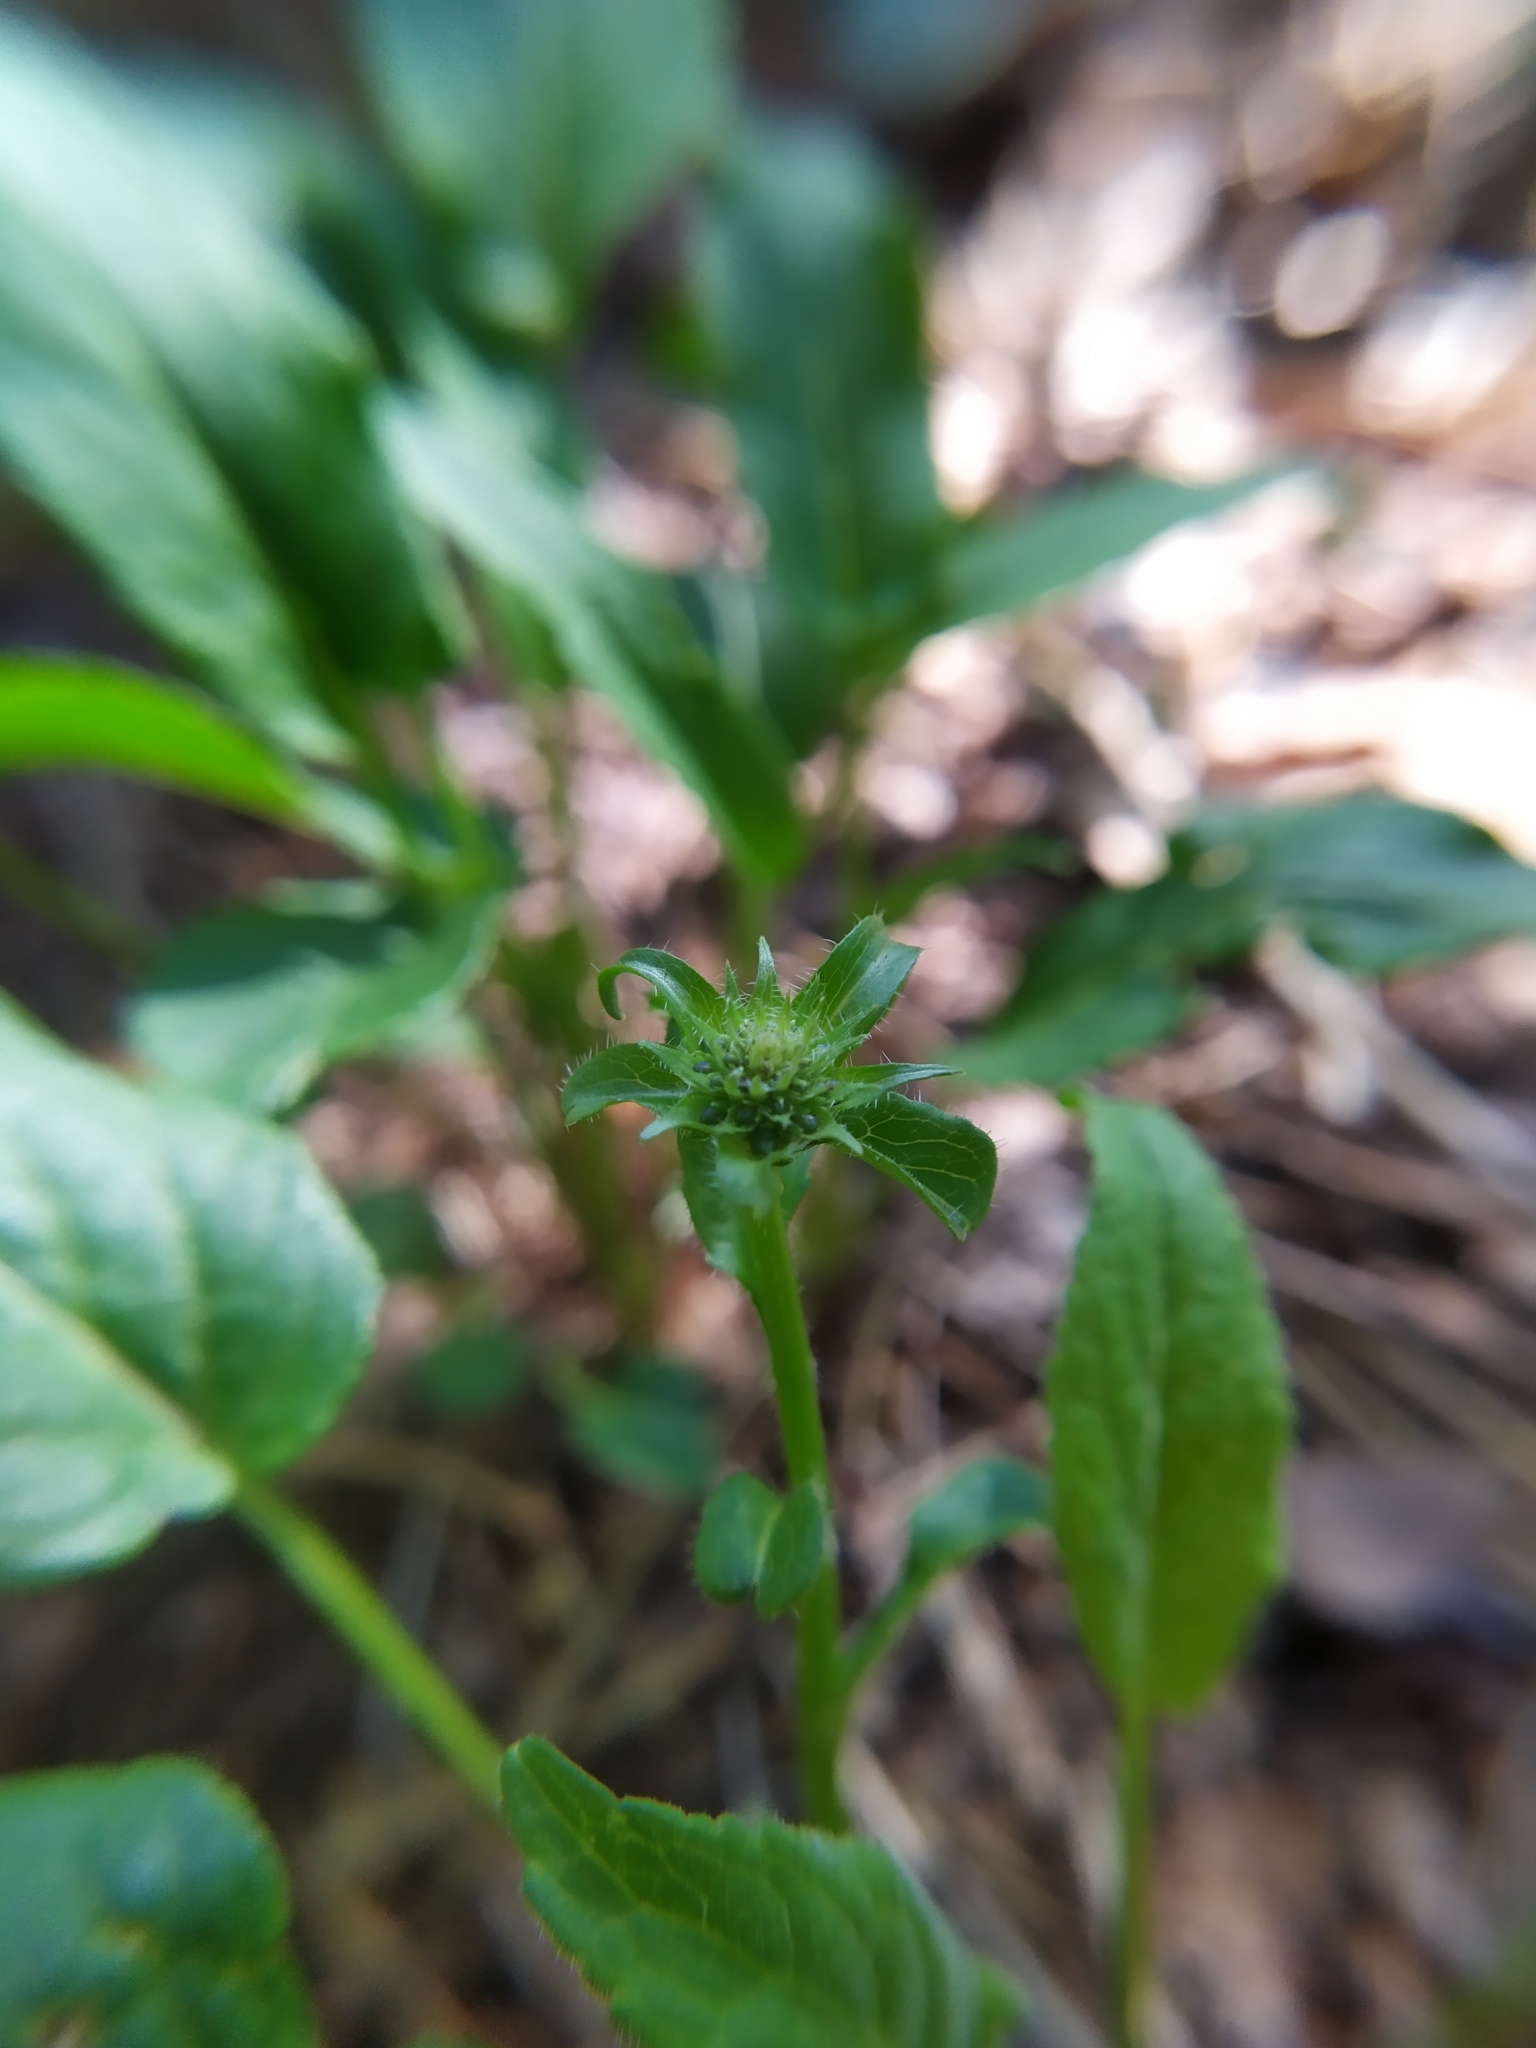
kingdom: Plantae
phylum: Tracheophyta
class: Magnoliopsida
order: Asterales
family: Campanulaceae
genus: Campanula
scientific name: Campanula glomerata
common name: Clustered bellflower
